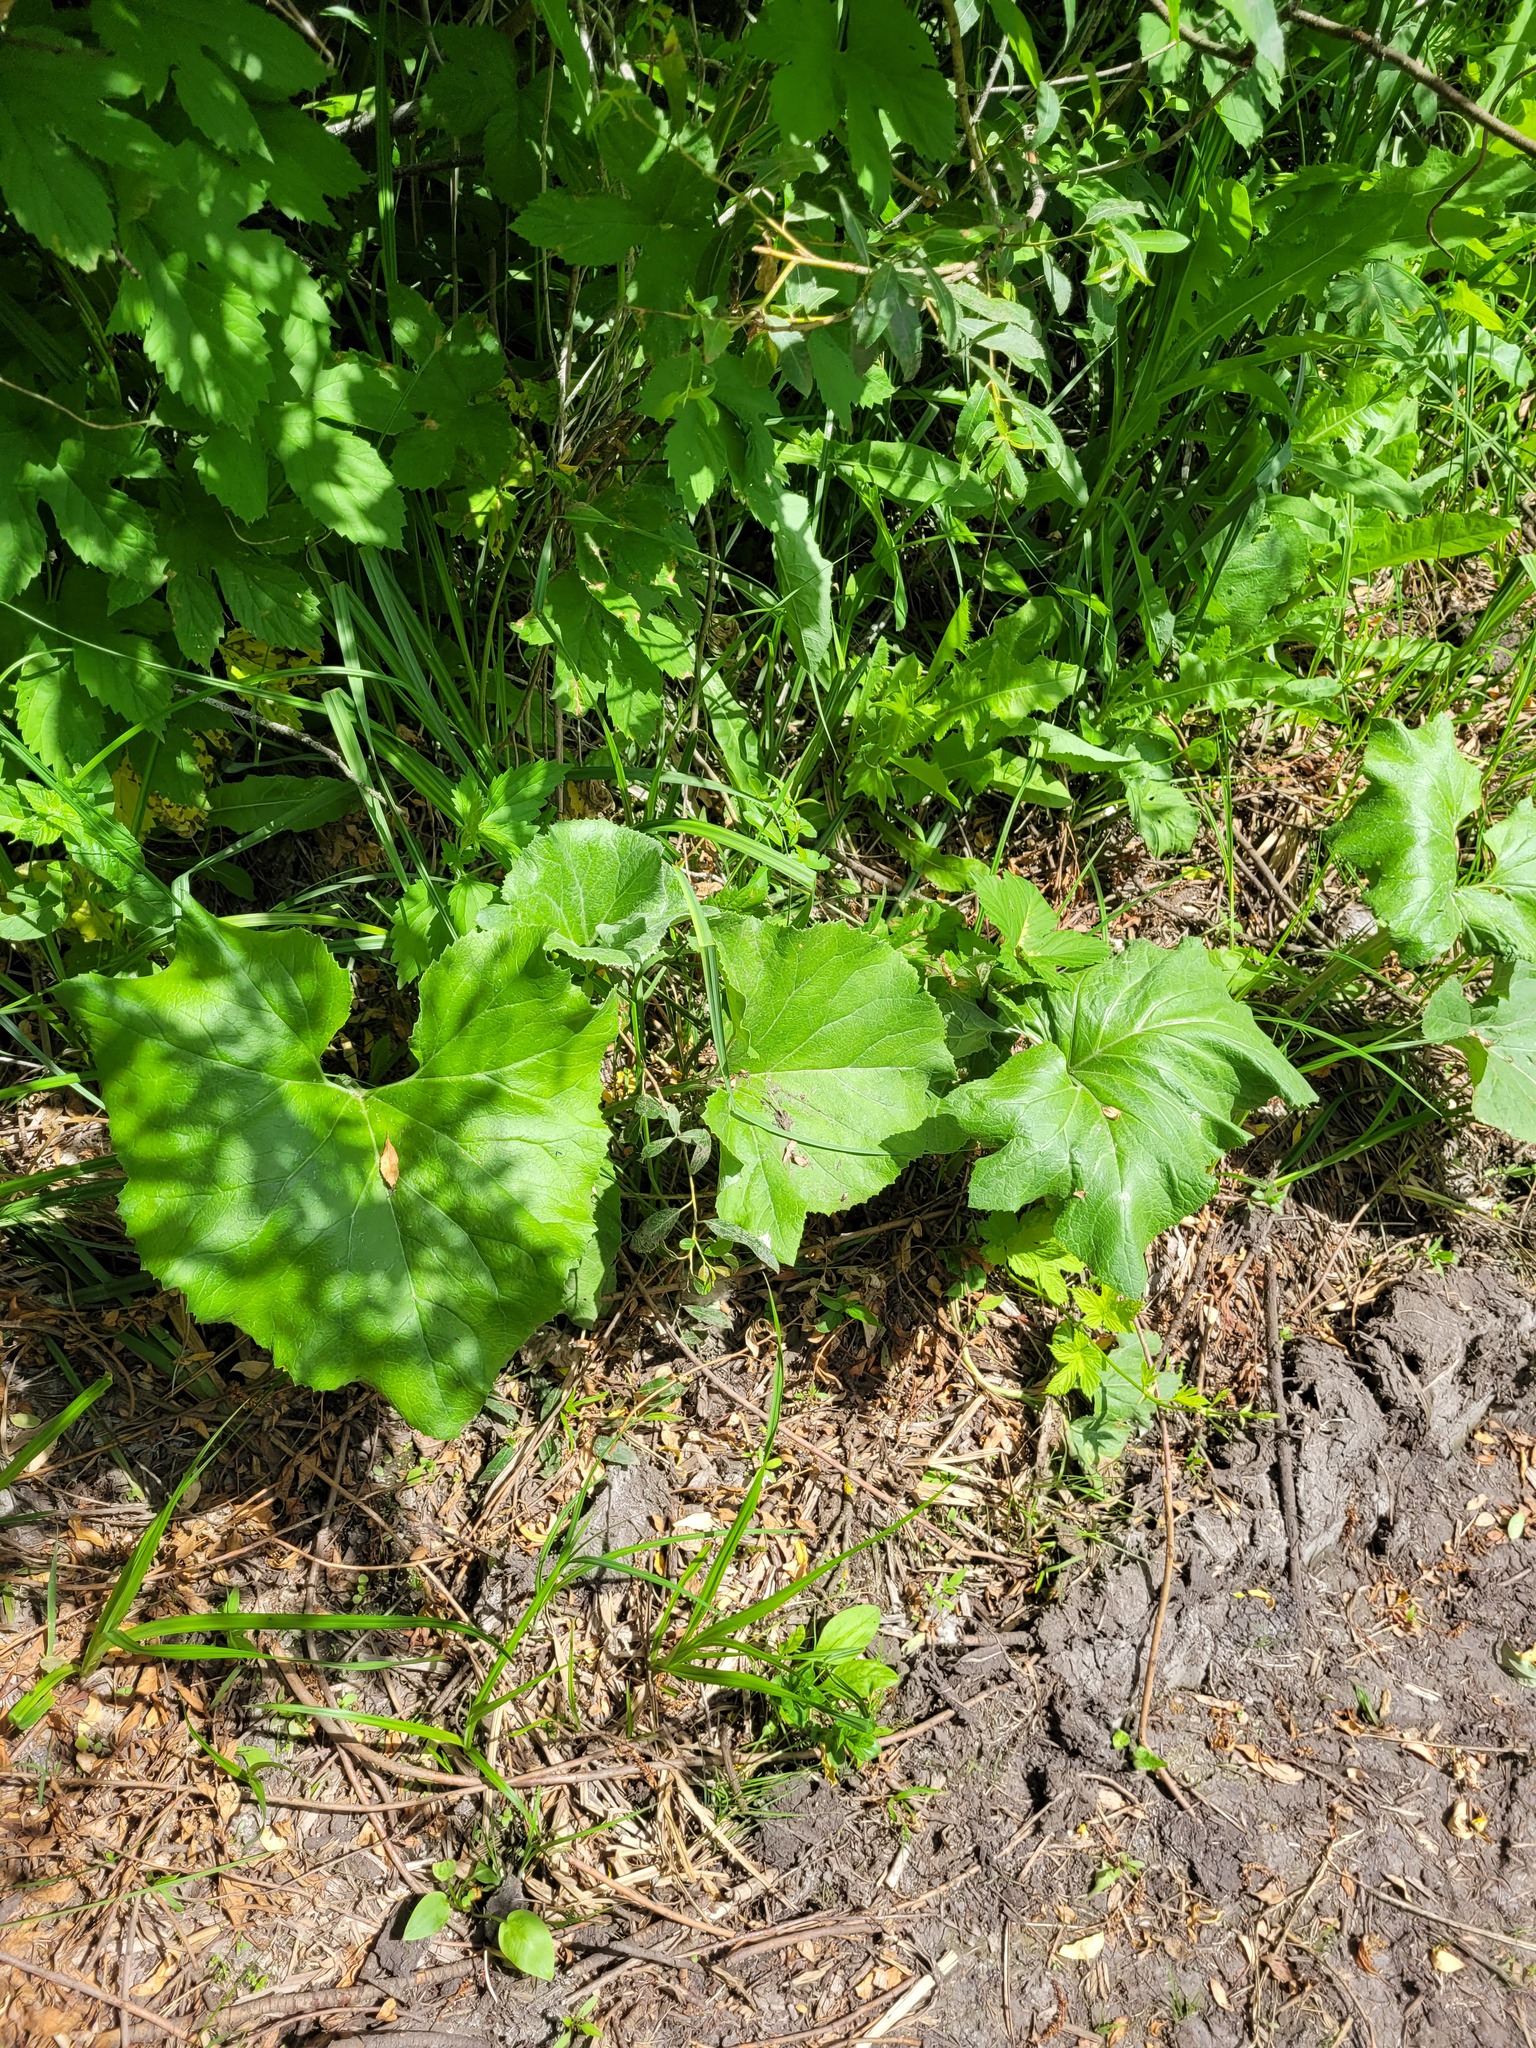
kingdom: Plantae
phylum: Tracheophyta
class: Magnoliopsida
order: Asterales
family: Asteraceae
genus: Petasites
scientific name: Petasites spurius
